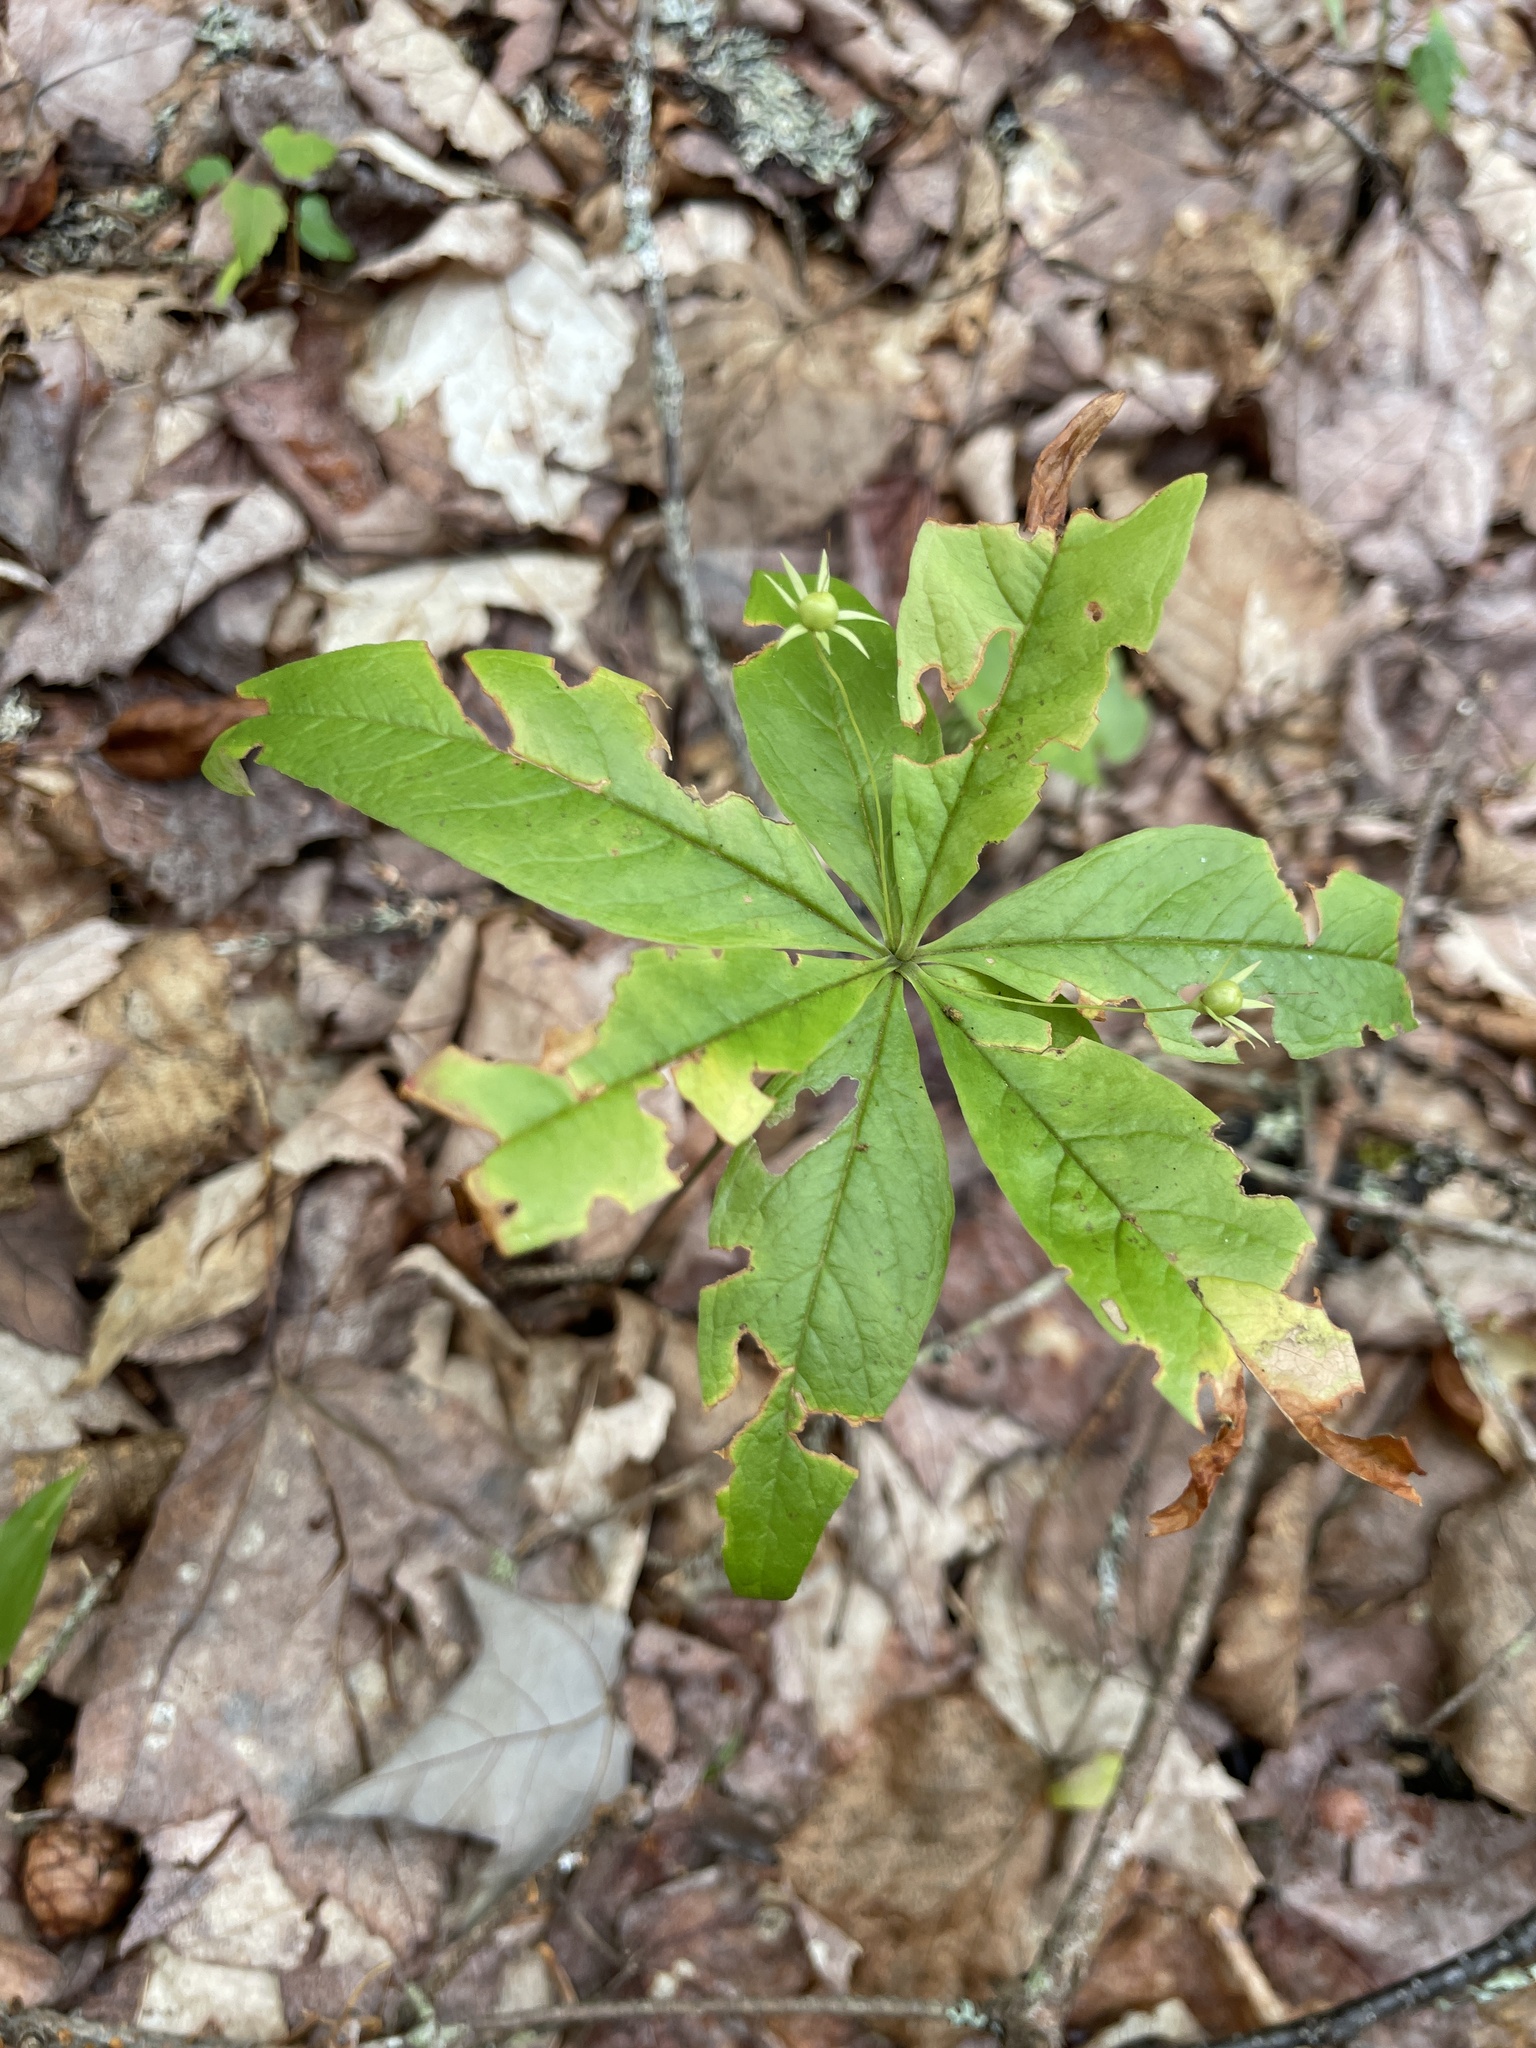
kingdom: Plantae
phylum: Tracheophyta
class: Magnoliopsida
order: Ericales
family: Primulaceae
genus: Lysimachia
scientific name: Lysimachia borealis
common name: American starflower
